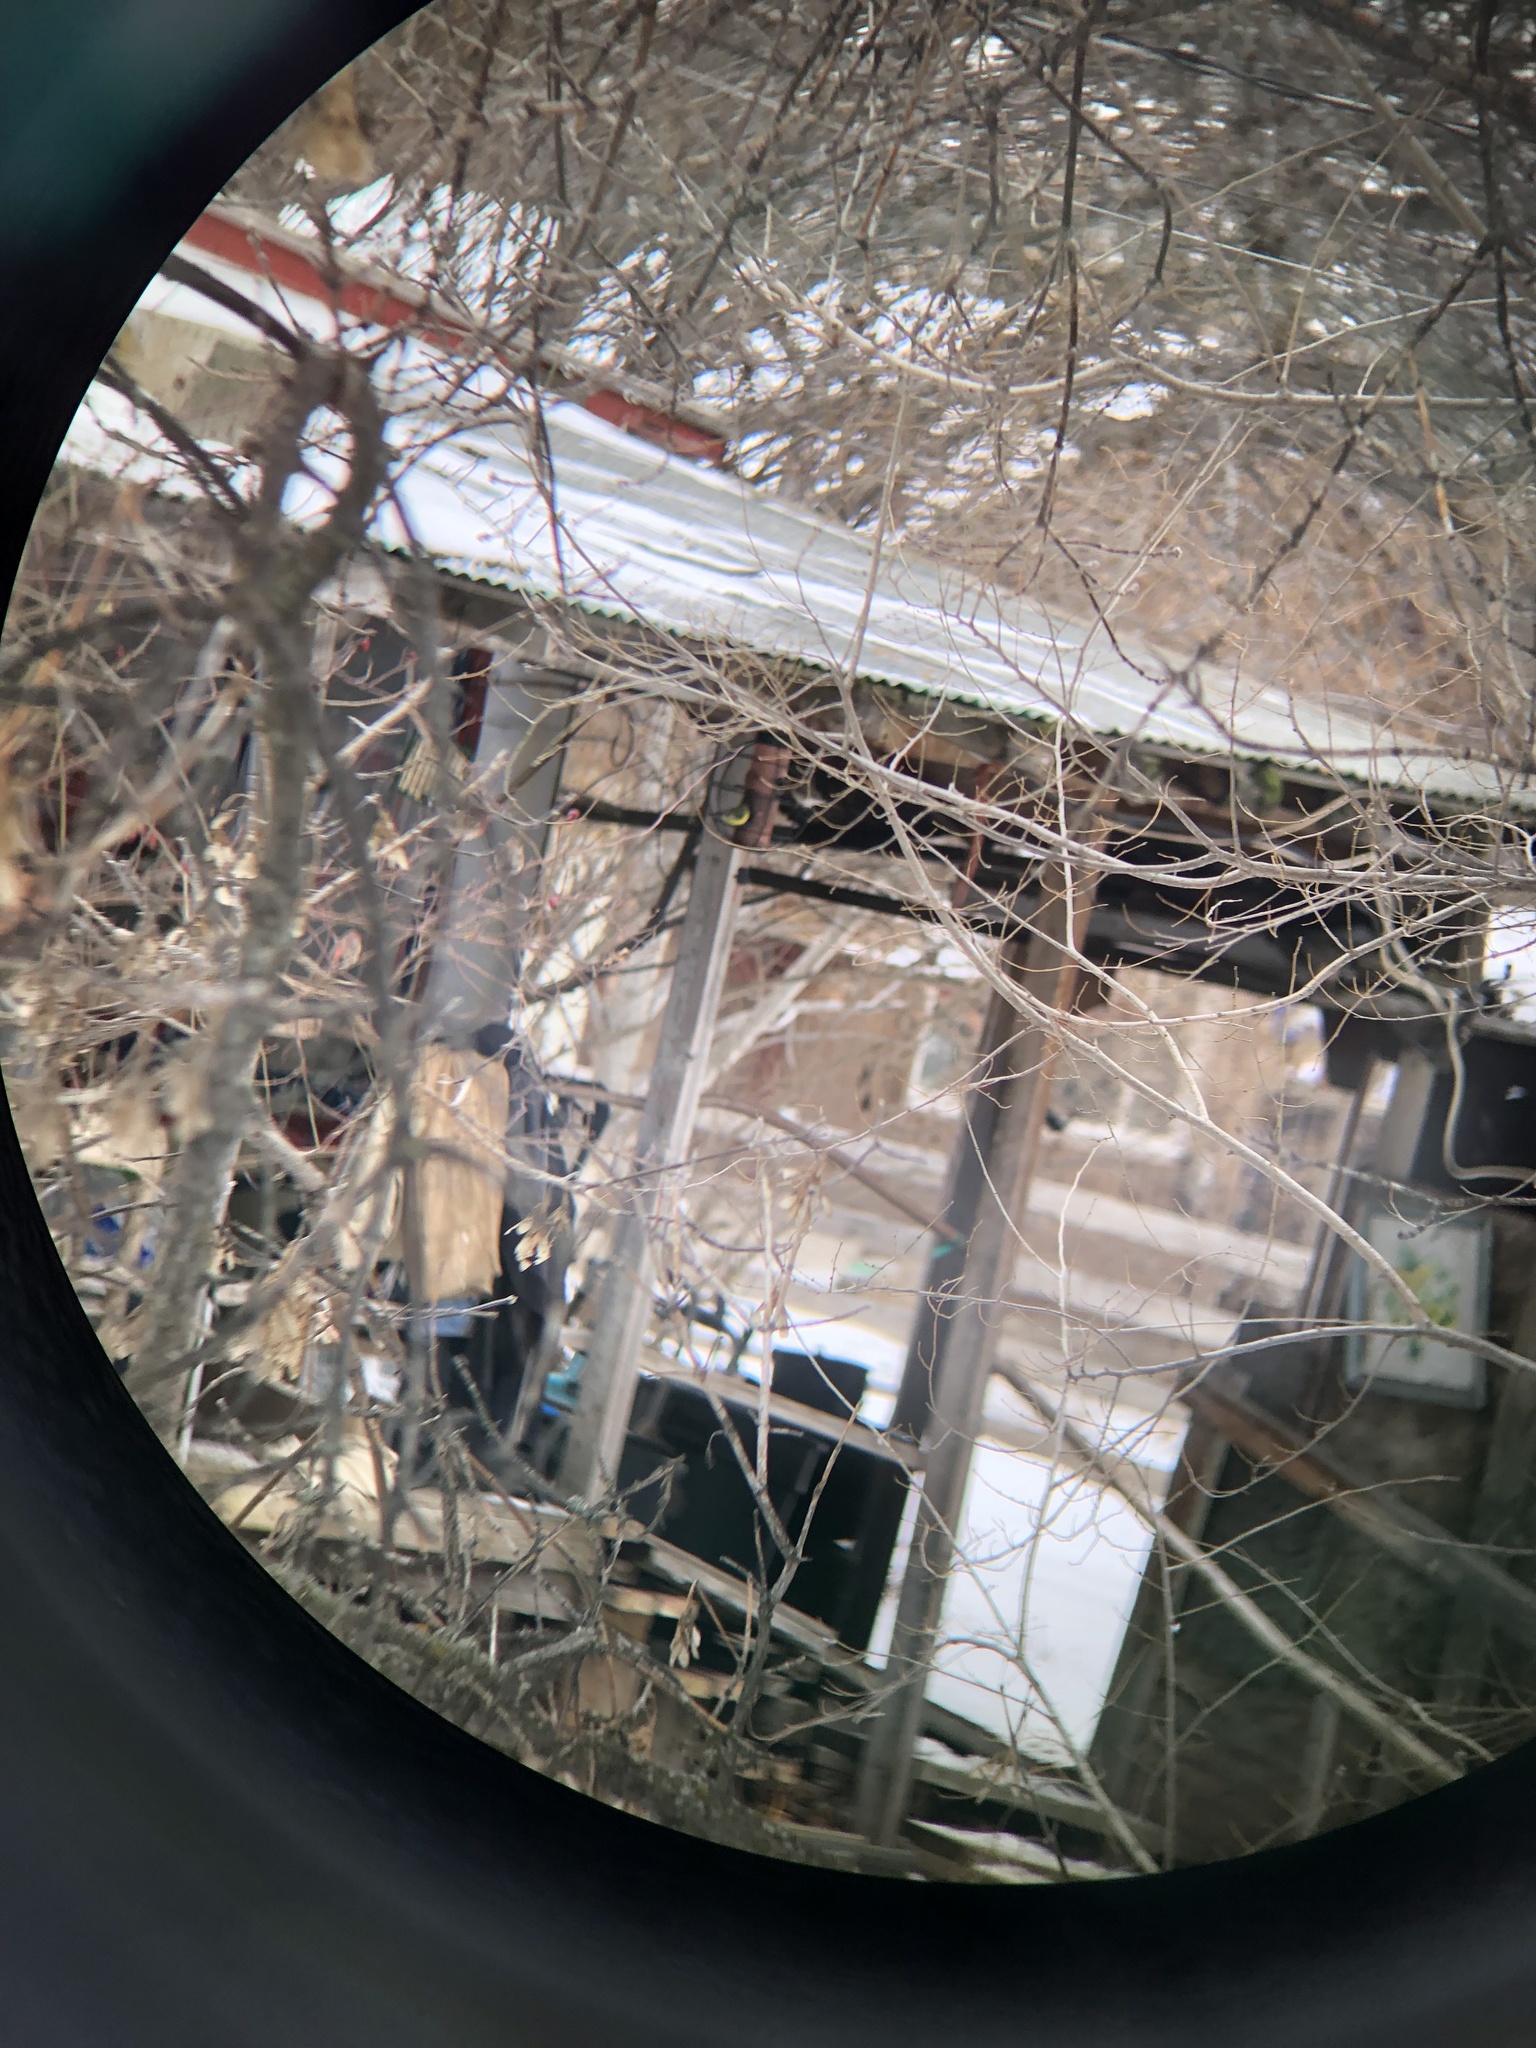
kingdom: Animalia
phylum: Chordata
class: Aves
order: Passeriformes
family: Fringillidae
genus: Spinus
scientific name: Spinus psaltria
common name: Lesser goldfinch
